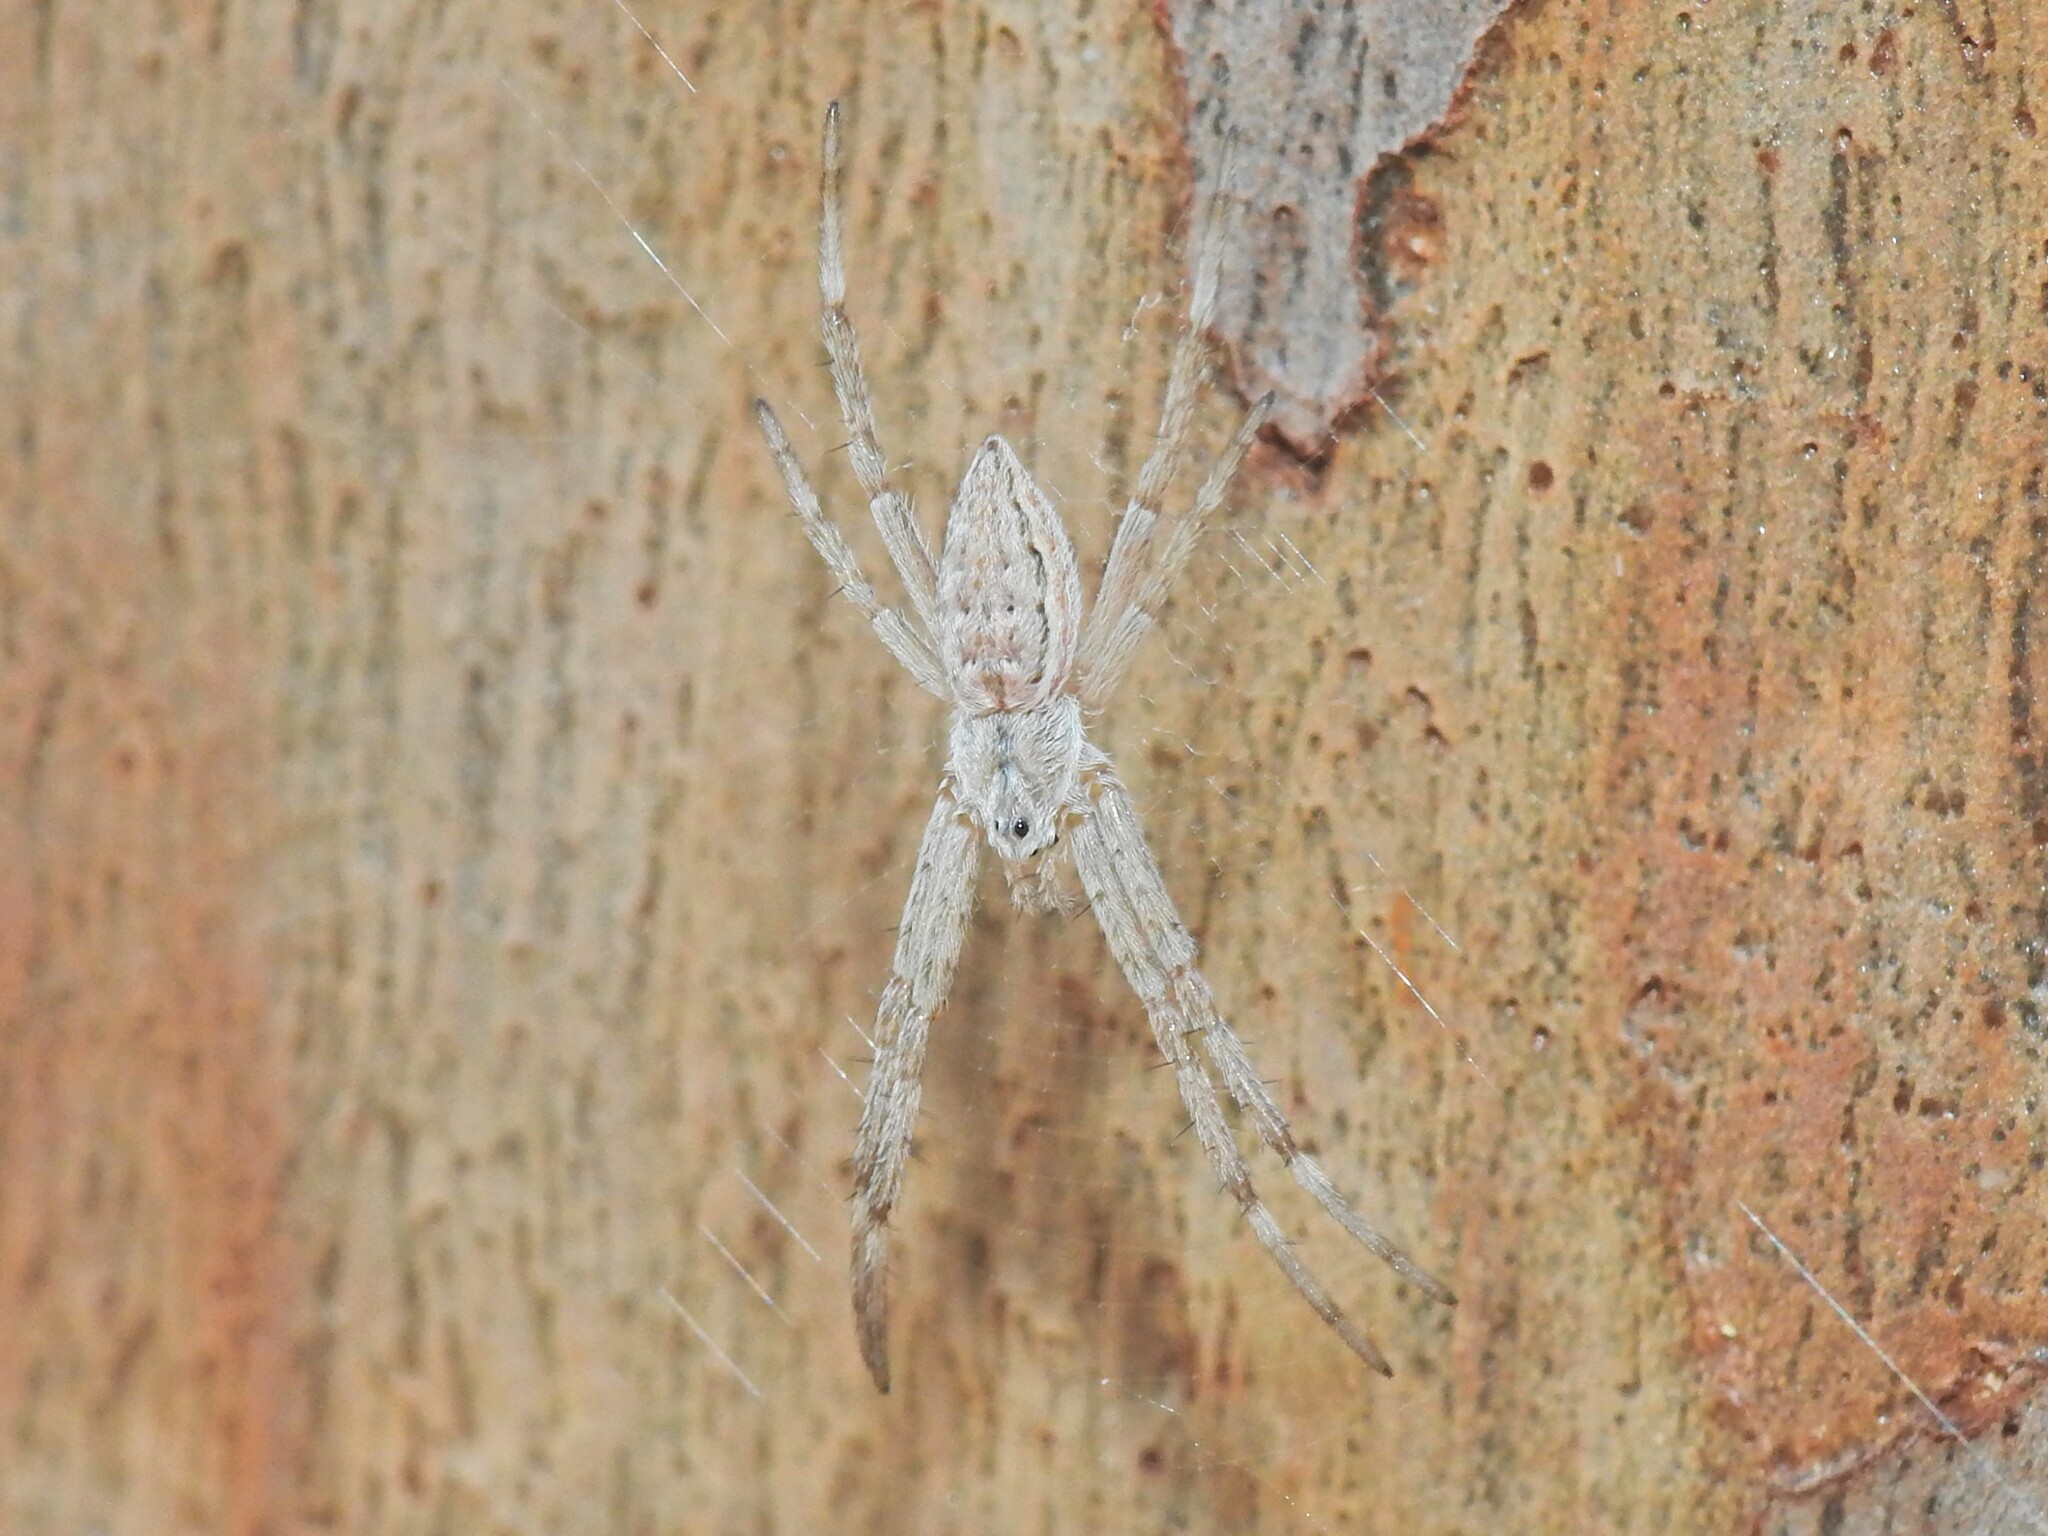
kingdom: Animalia
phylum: Arthropoda
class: Arachnida
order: Araneae
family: Araneidae
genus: Argiope
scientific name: Argiope ocyaloides
